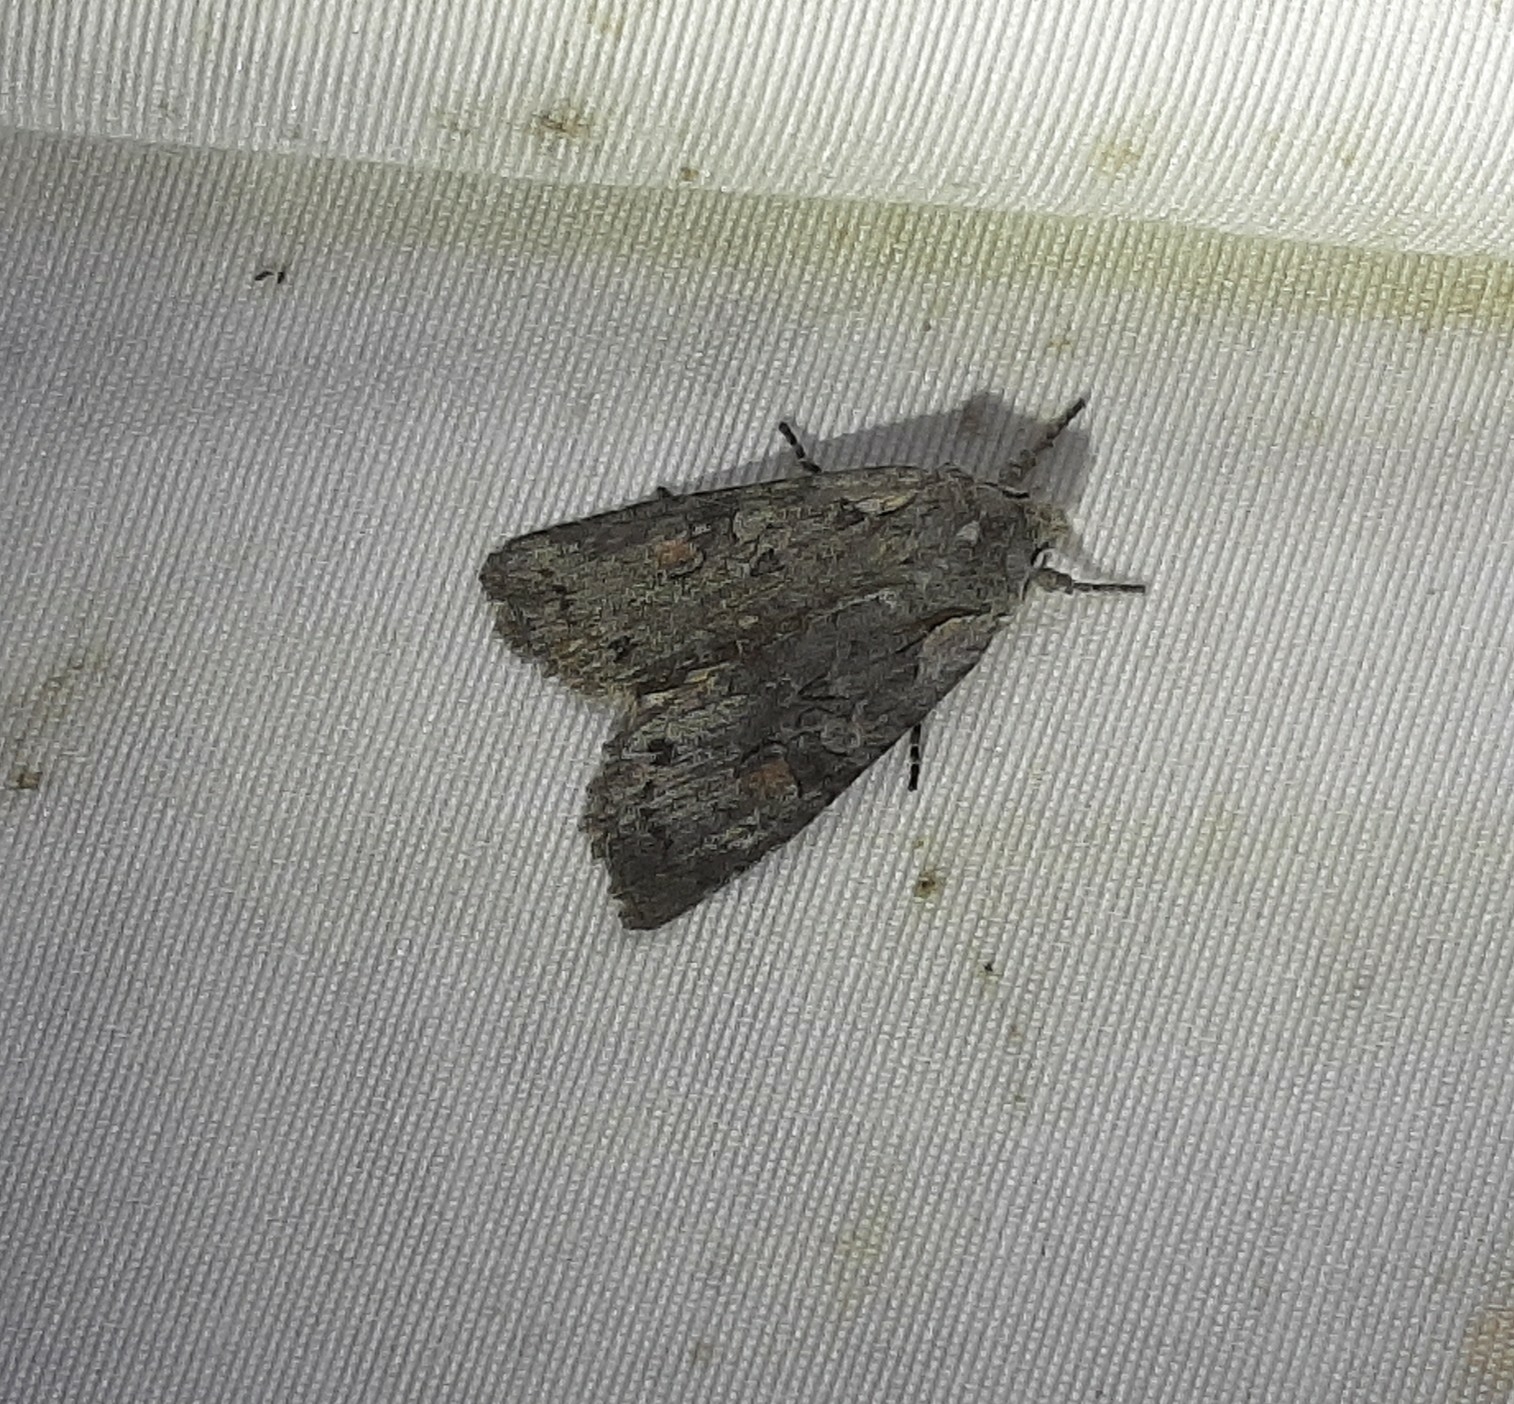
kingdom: Animalia
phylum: Arthropoda
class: Insecta
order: Lepidoptera
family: Noctuidae
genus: Lithophane
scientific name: Lithophane antennata
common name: Ashen pinion
